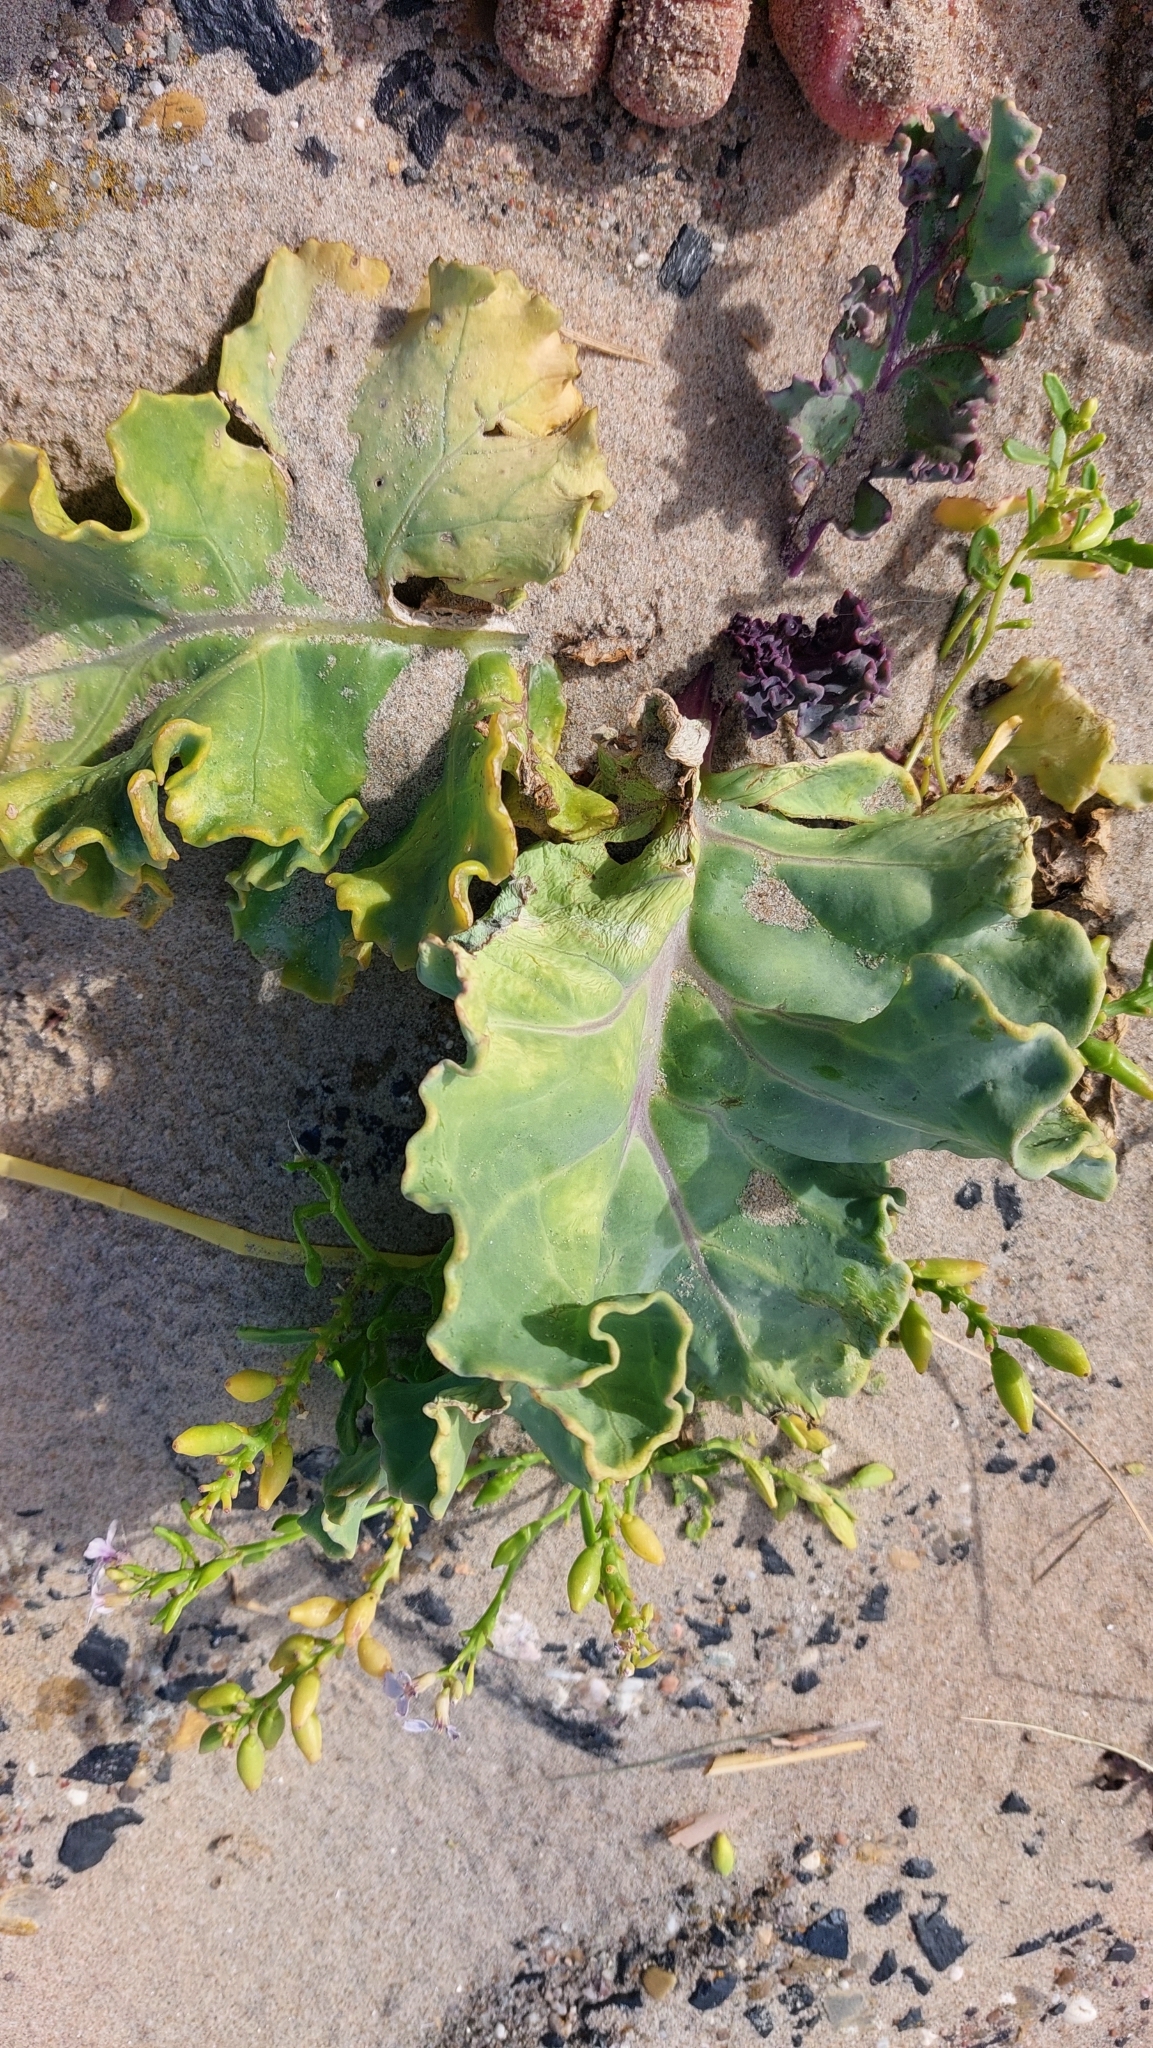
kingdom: Plantae
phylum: Tracheophyta
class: Magnoliopsida
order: Brassicales
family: Brassicaceae
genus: Crambe
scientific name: Crambe maritima
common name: Sea-kale
